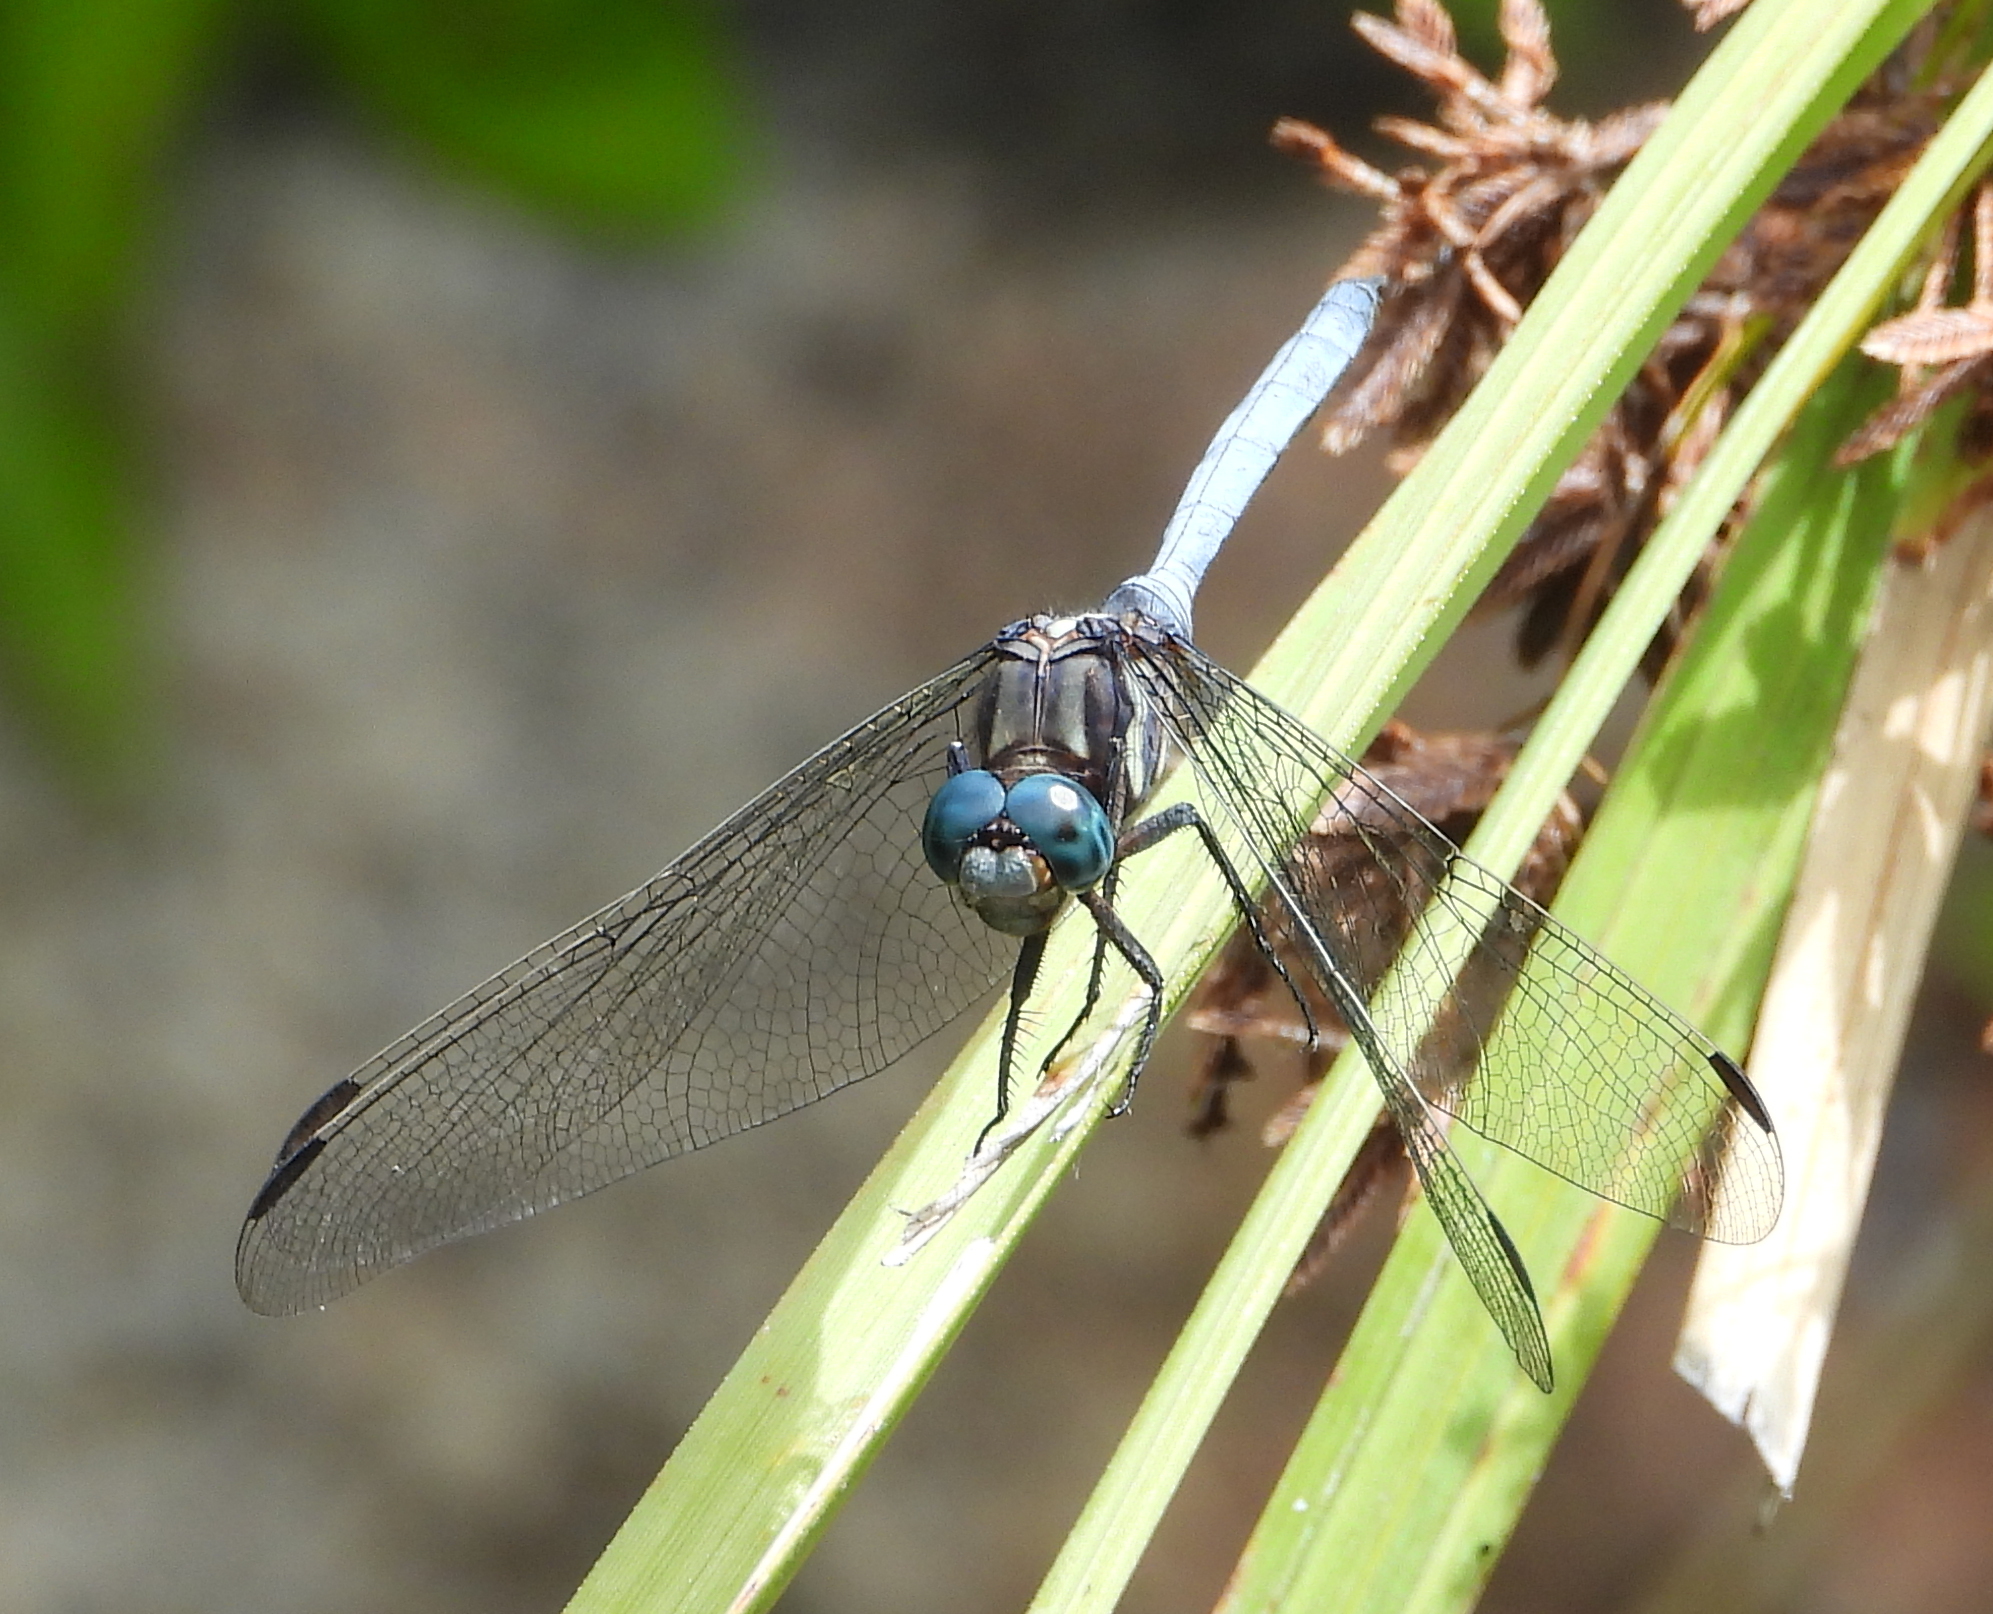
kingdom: Animalia
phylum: Arthropoda
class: Insecta
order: Odonata
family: Libellulidae
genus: Orthetrum
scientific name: Orthetrum julia
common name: Julia skimmer
